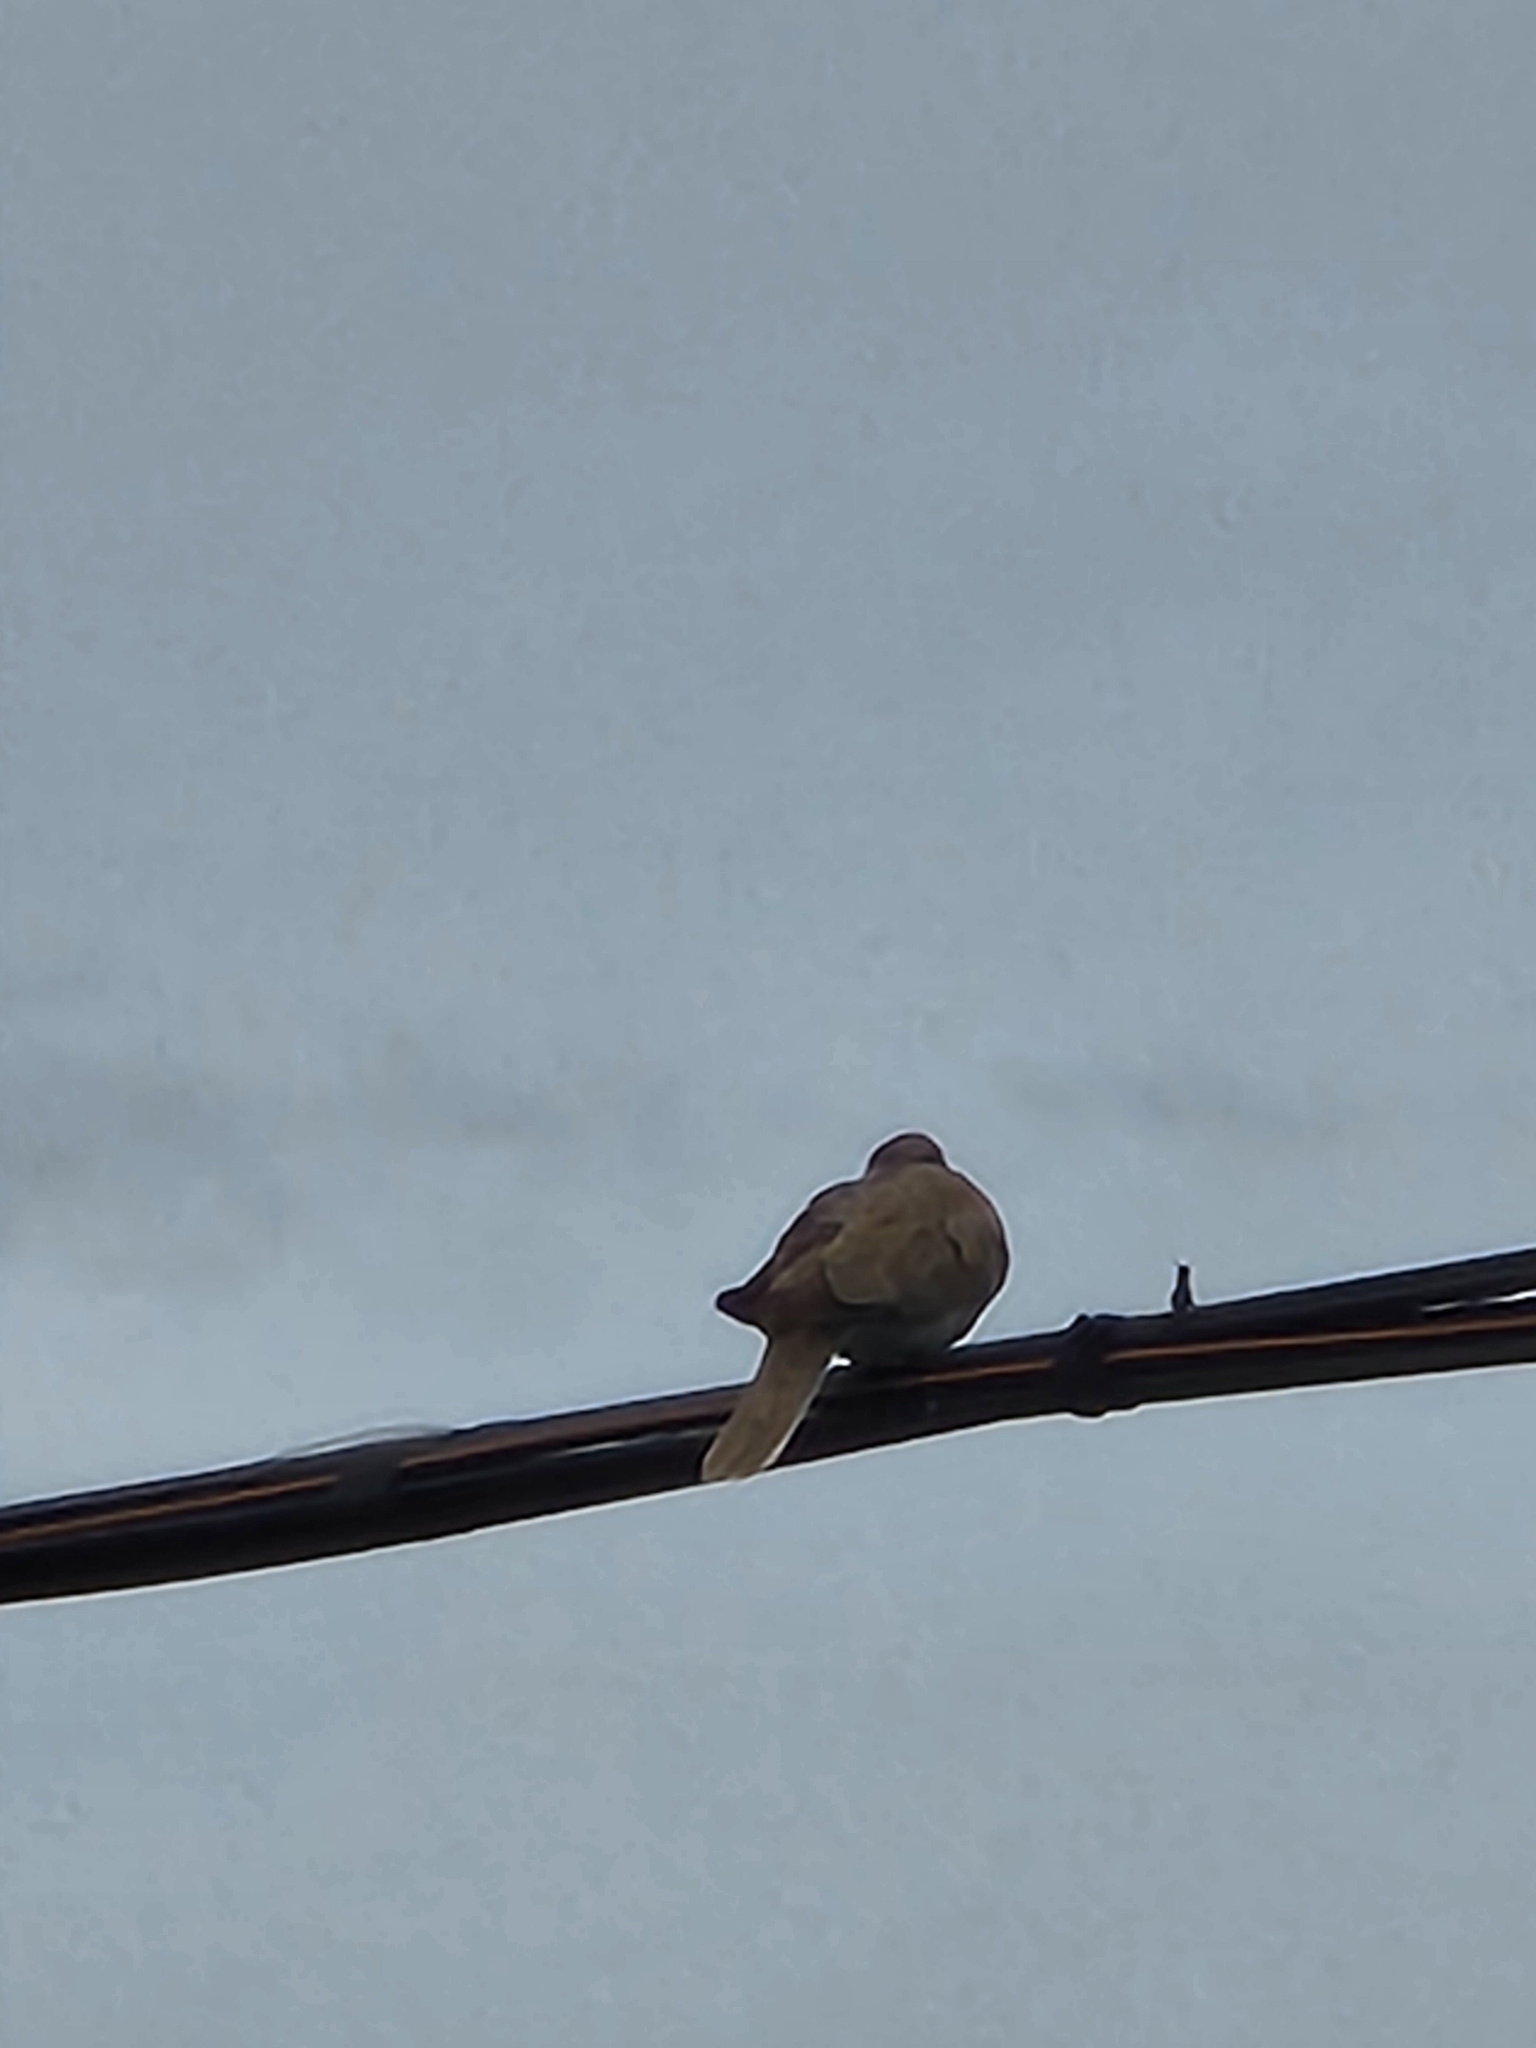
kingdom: Animalia
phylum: Chordata
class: Aves
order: Columbiformes
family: Columbidae
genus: Streptopelia
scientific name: Streptopelia decaocto
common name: Eurasian collared dove
